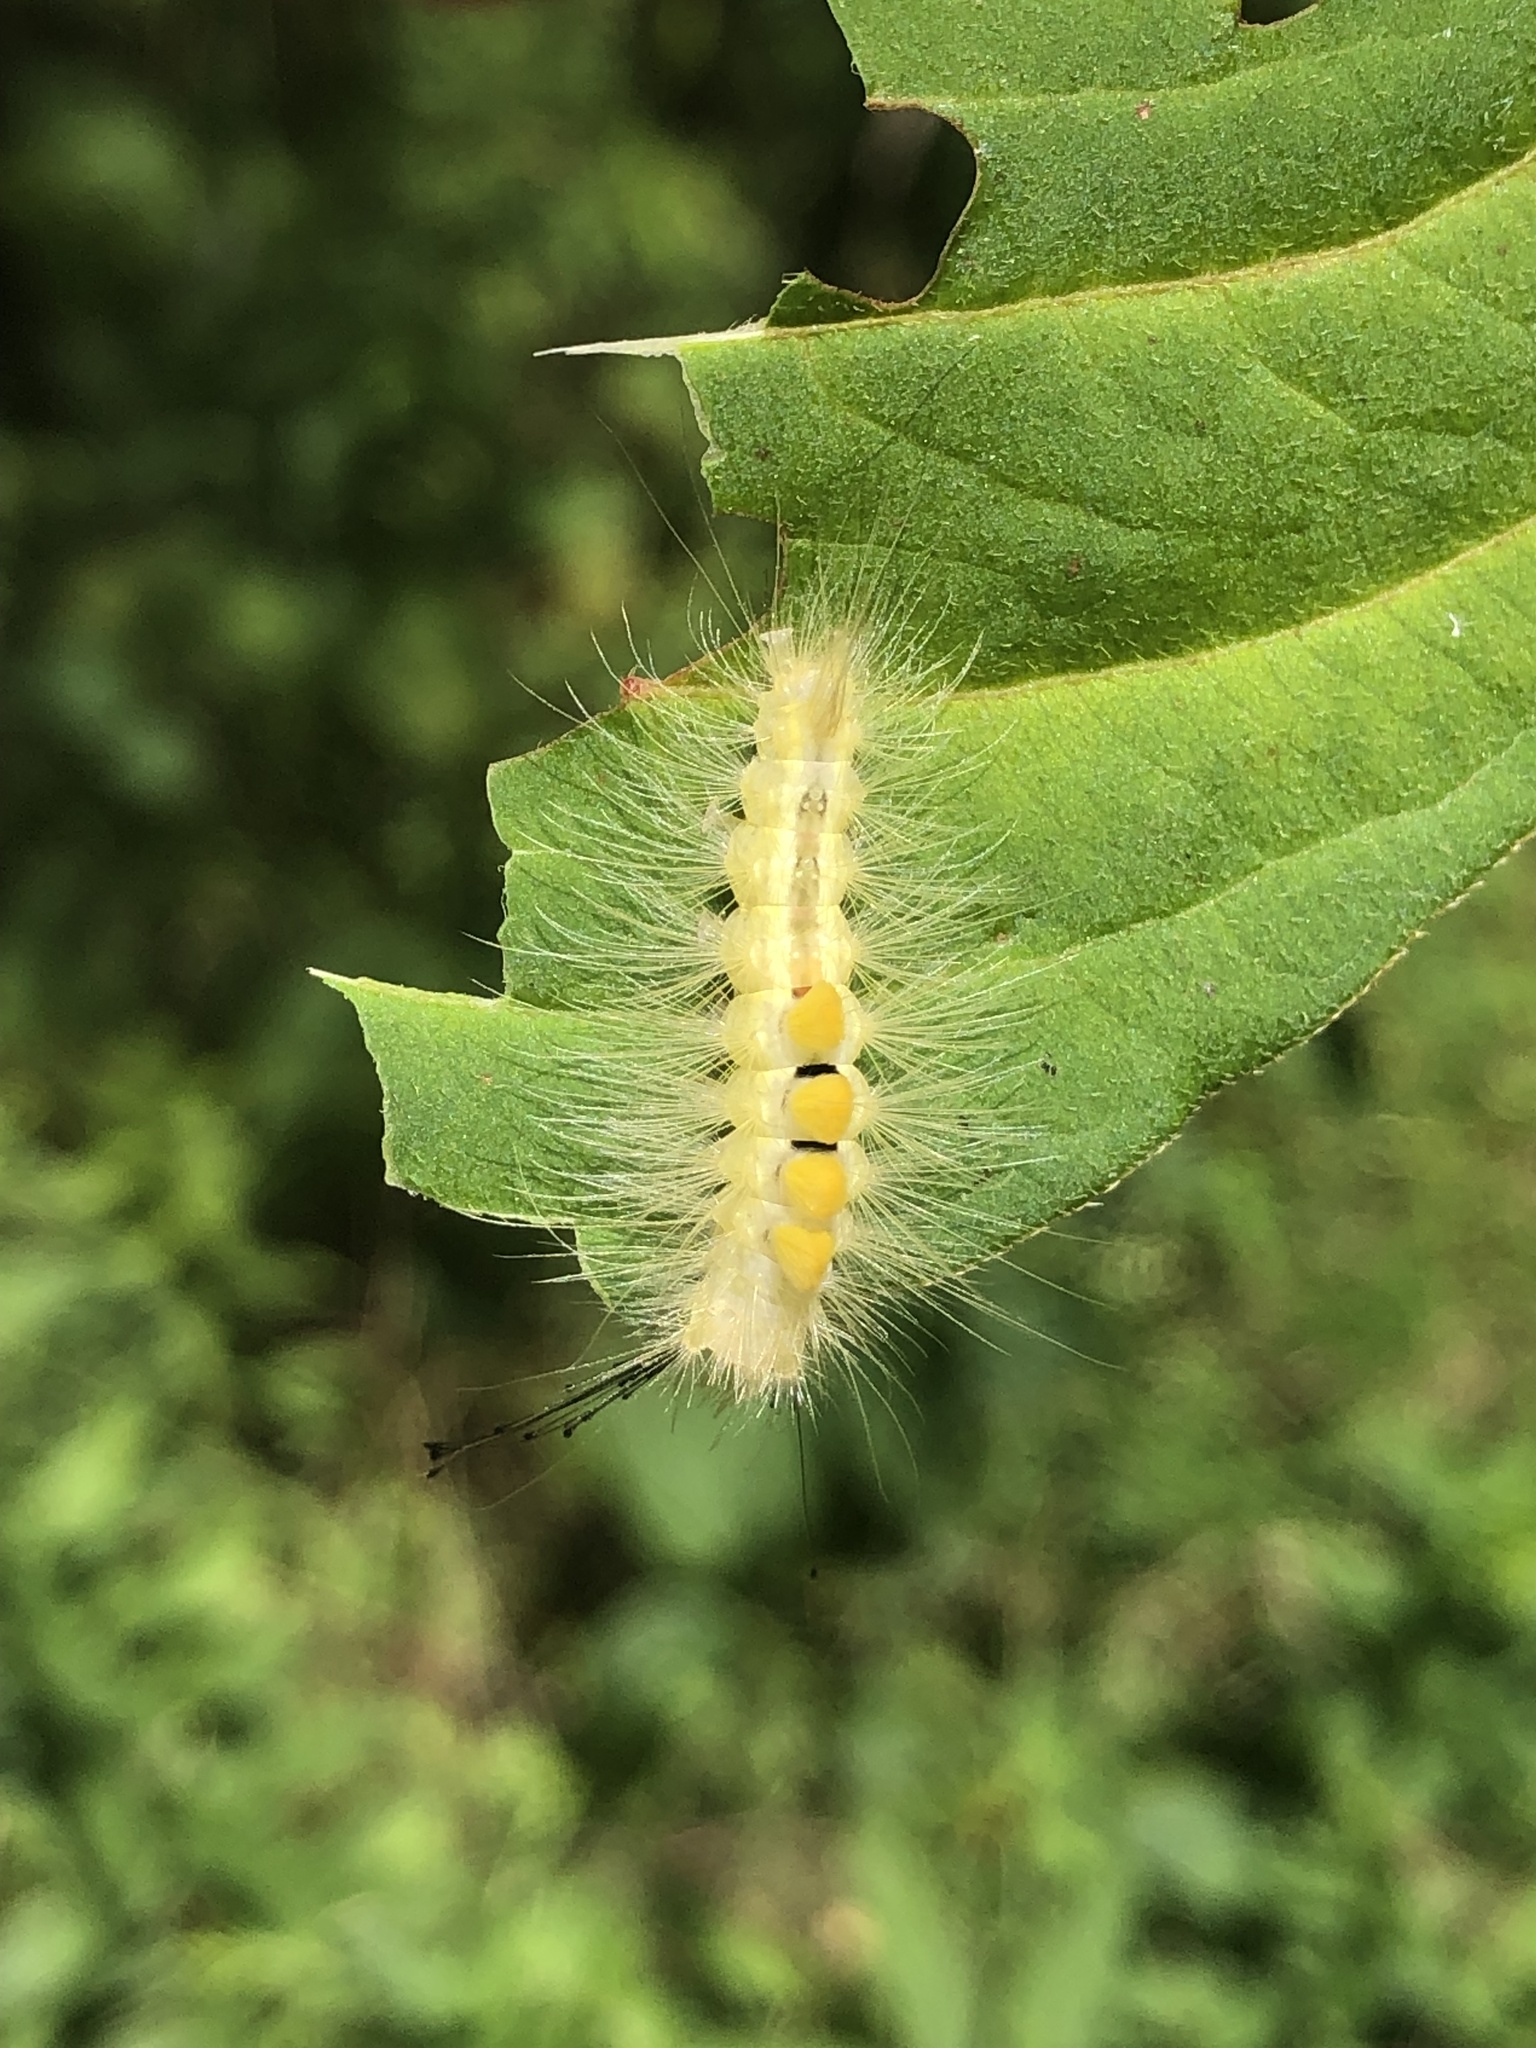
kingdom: Animalia
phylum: Arthropoda
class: Insecta
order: Lepidoptera
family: Erebidae
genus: Orgyia
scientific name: Orgyia definita
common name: Definite tussock moth
